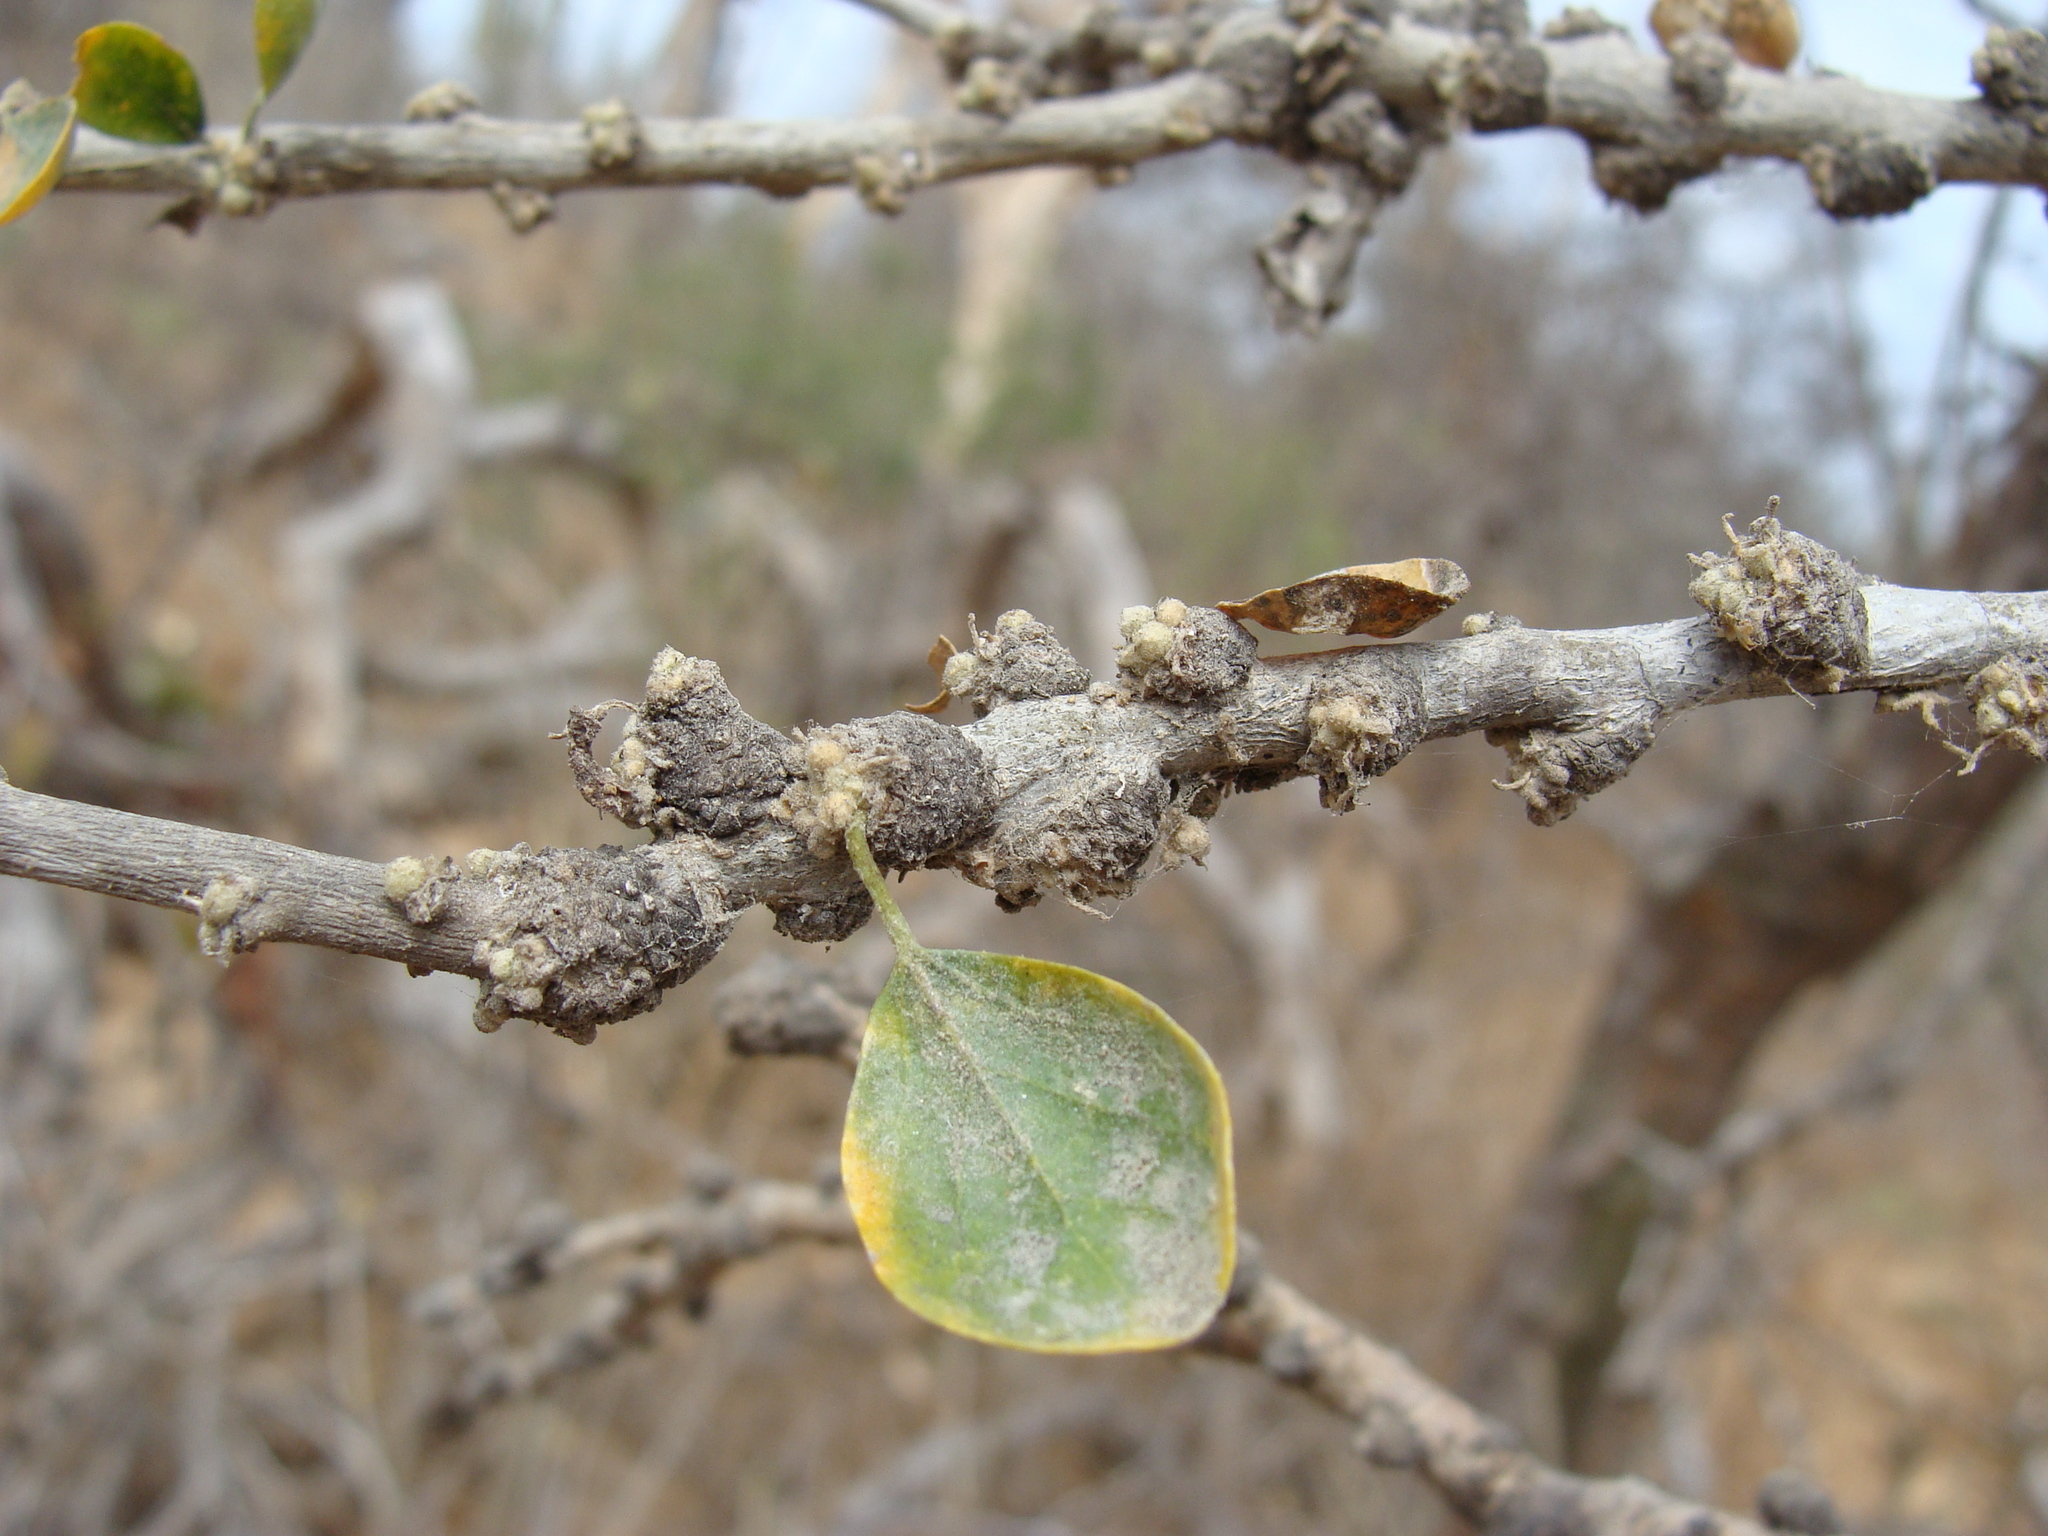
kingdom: Plantae
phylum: Tracheophyta
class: Magnoliopsida
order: Malpighiales
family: Euphorbiaceae
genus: Adelia
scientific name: Adelia brandegeei
